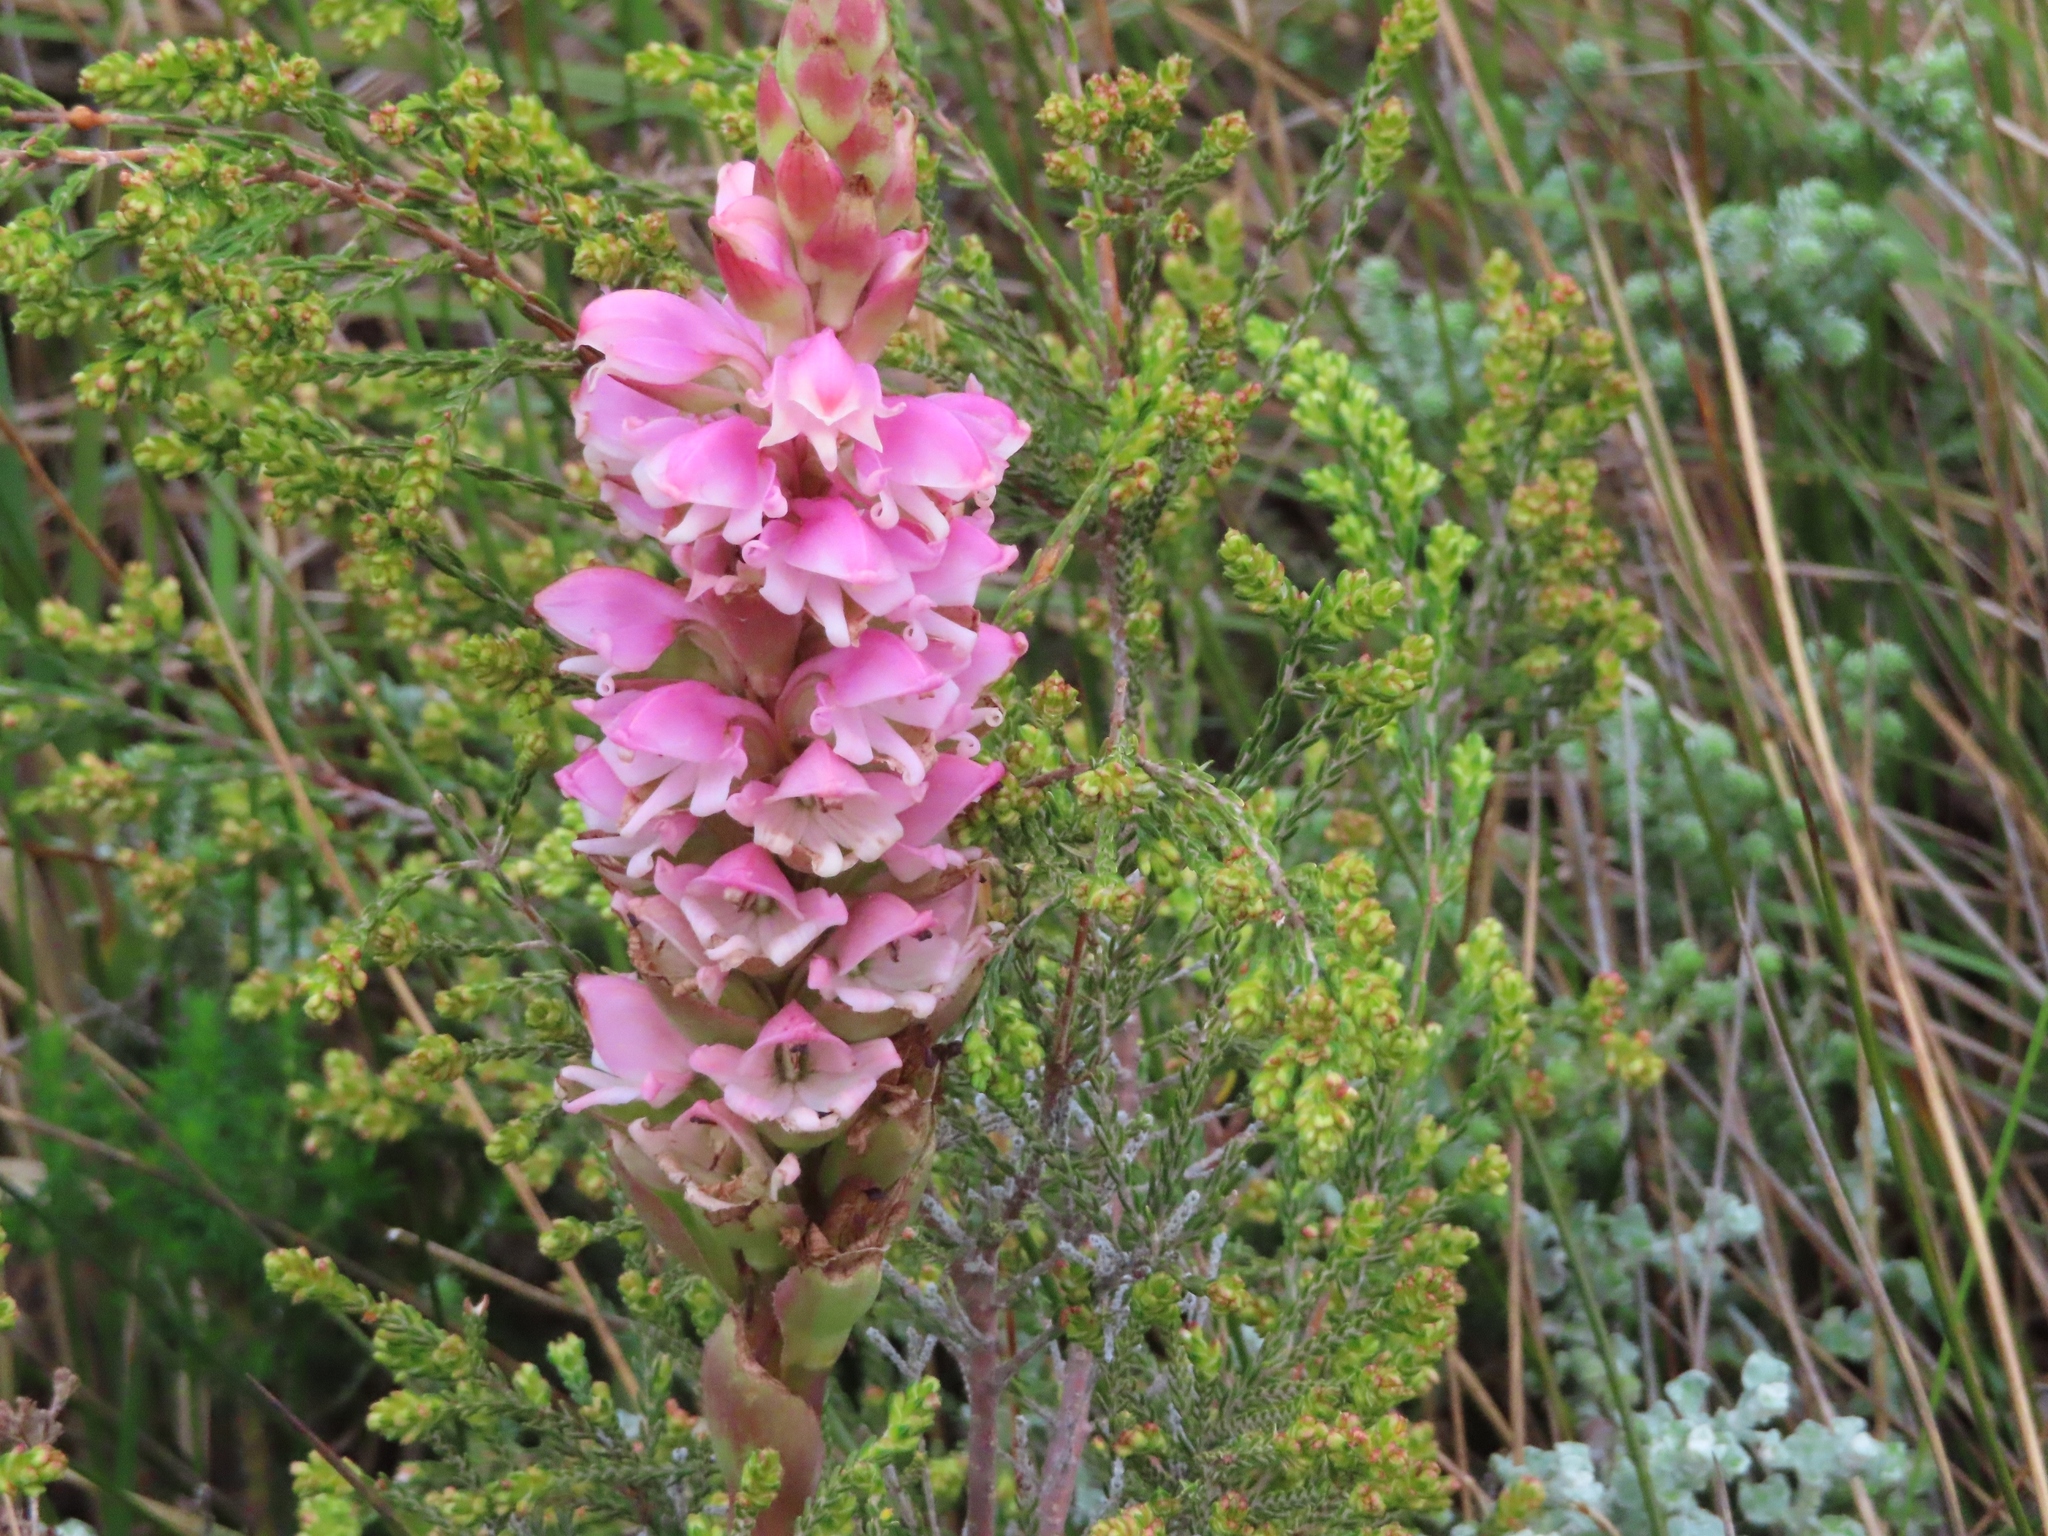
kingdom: Plantae
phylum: Tracheophyta
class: Liliopsida
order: Asparagales
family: Orchidaceae
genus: Satyrium
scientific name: Satyrium carneum
